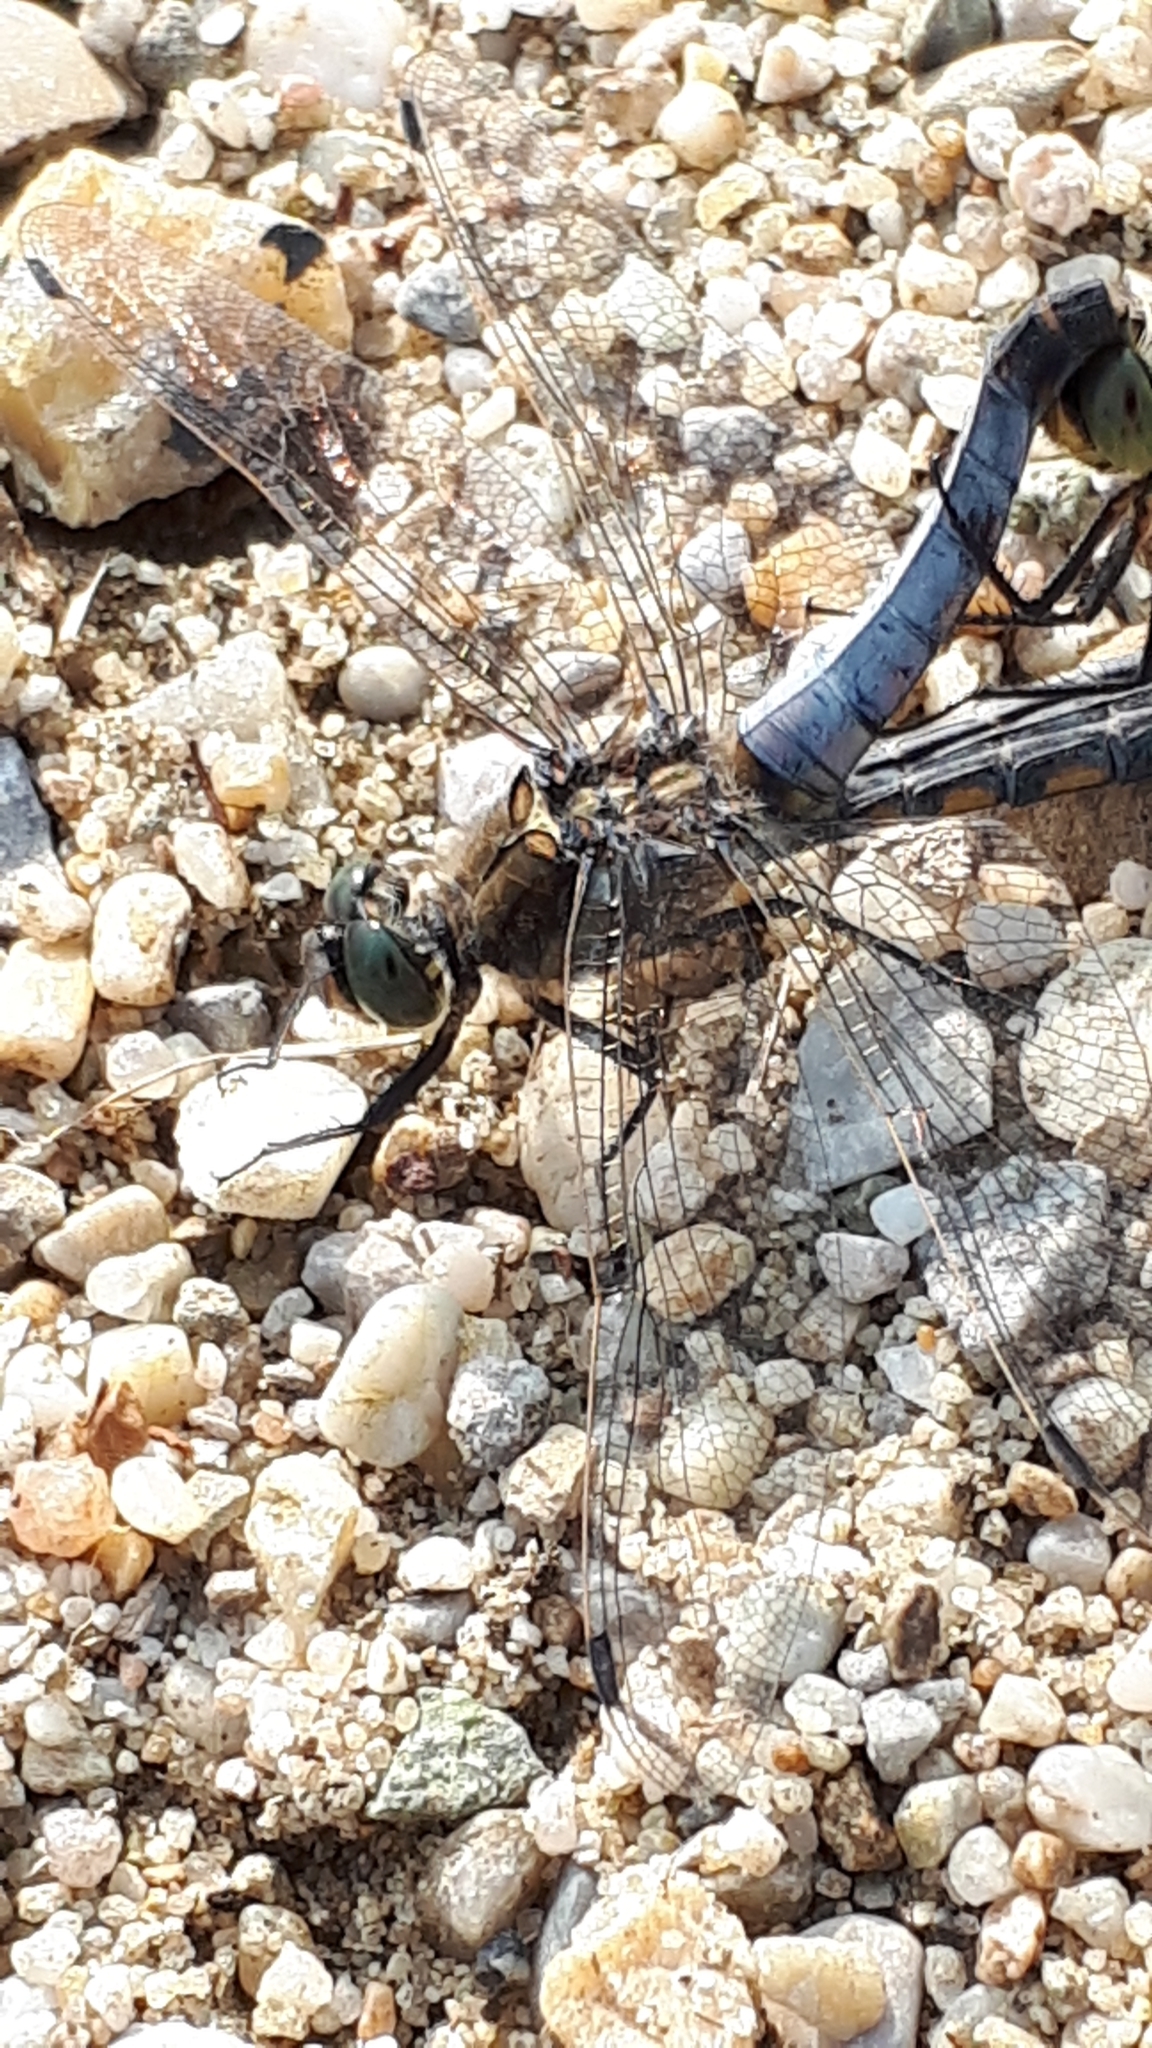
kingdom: Animalia
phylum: Arthropoda
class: Insecta
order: Odonata
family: Libellulidae
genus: Orthetrum
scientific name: Orthetrum cancellatum
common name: Black-tailed skimmer
